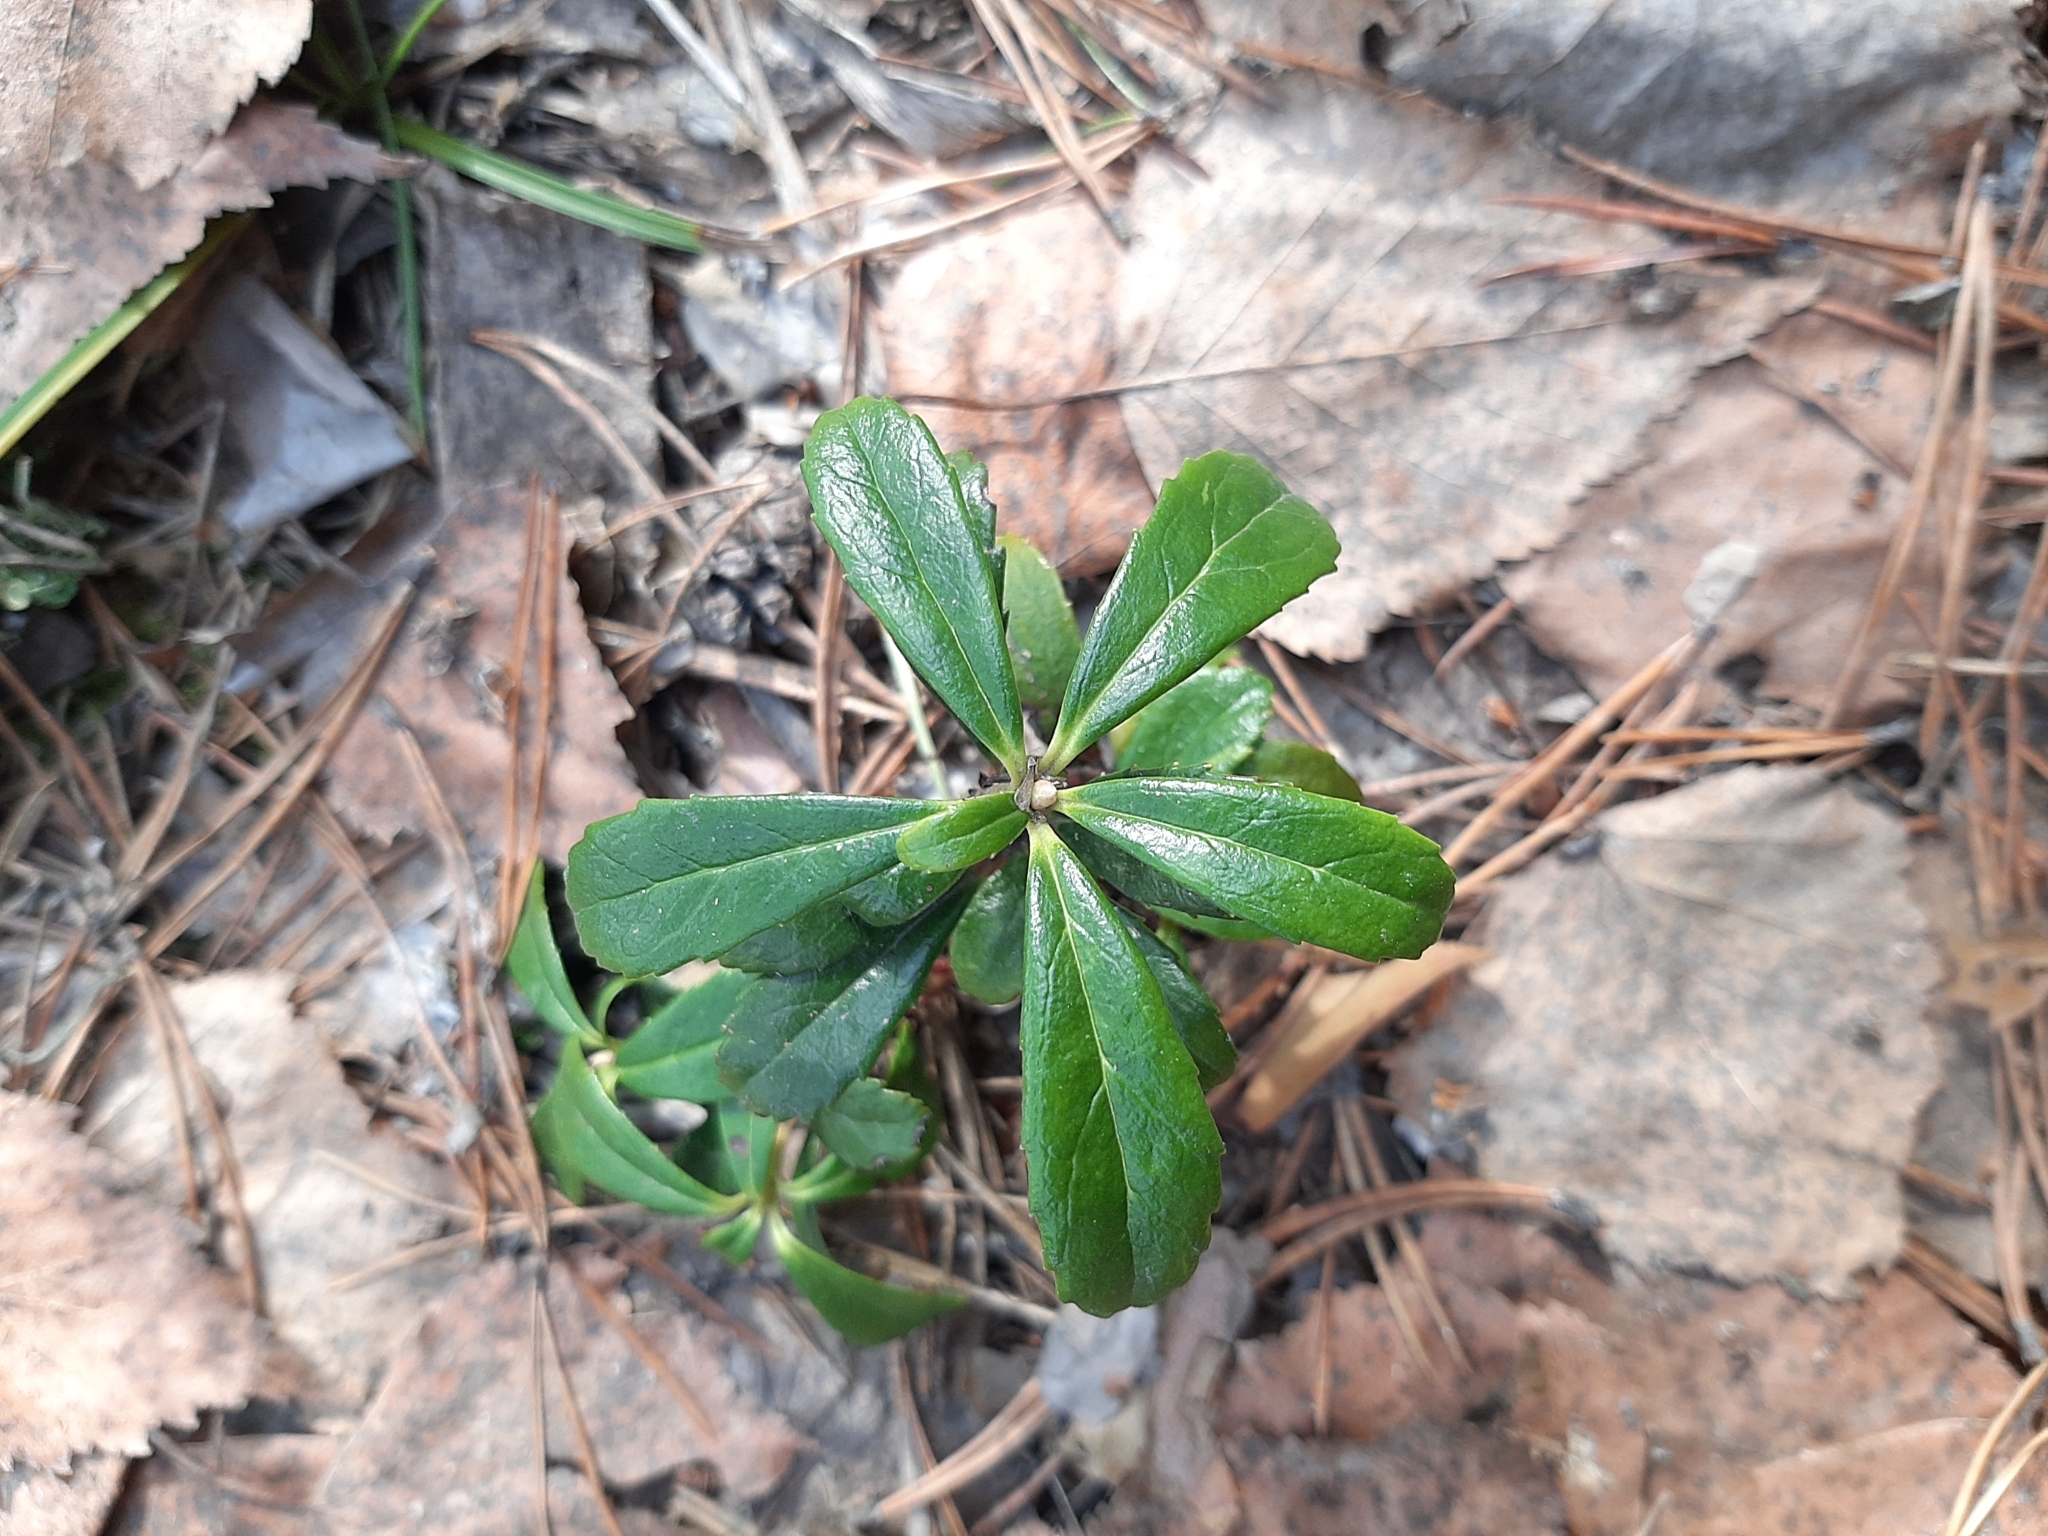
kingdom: Plantae
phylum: Tracheophyta
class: Magnoliopsida
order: Ericales
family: Ericaceae
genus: Chimaphila
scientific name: Chimaphila umbellata
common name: Pipsissewa
